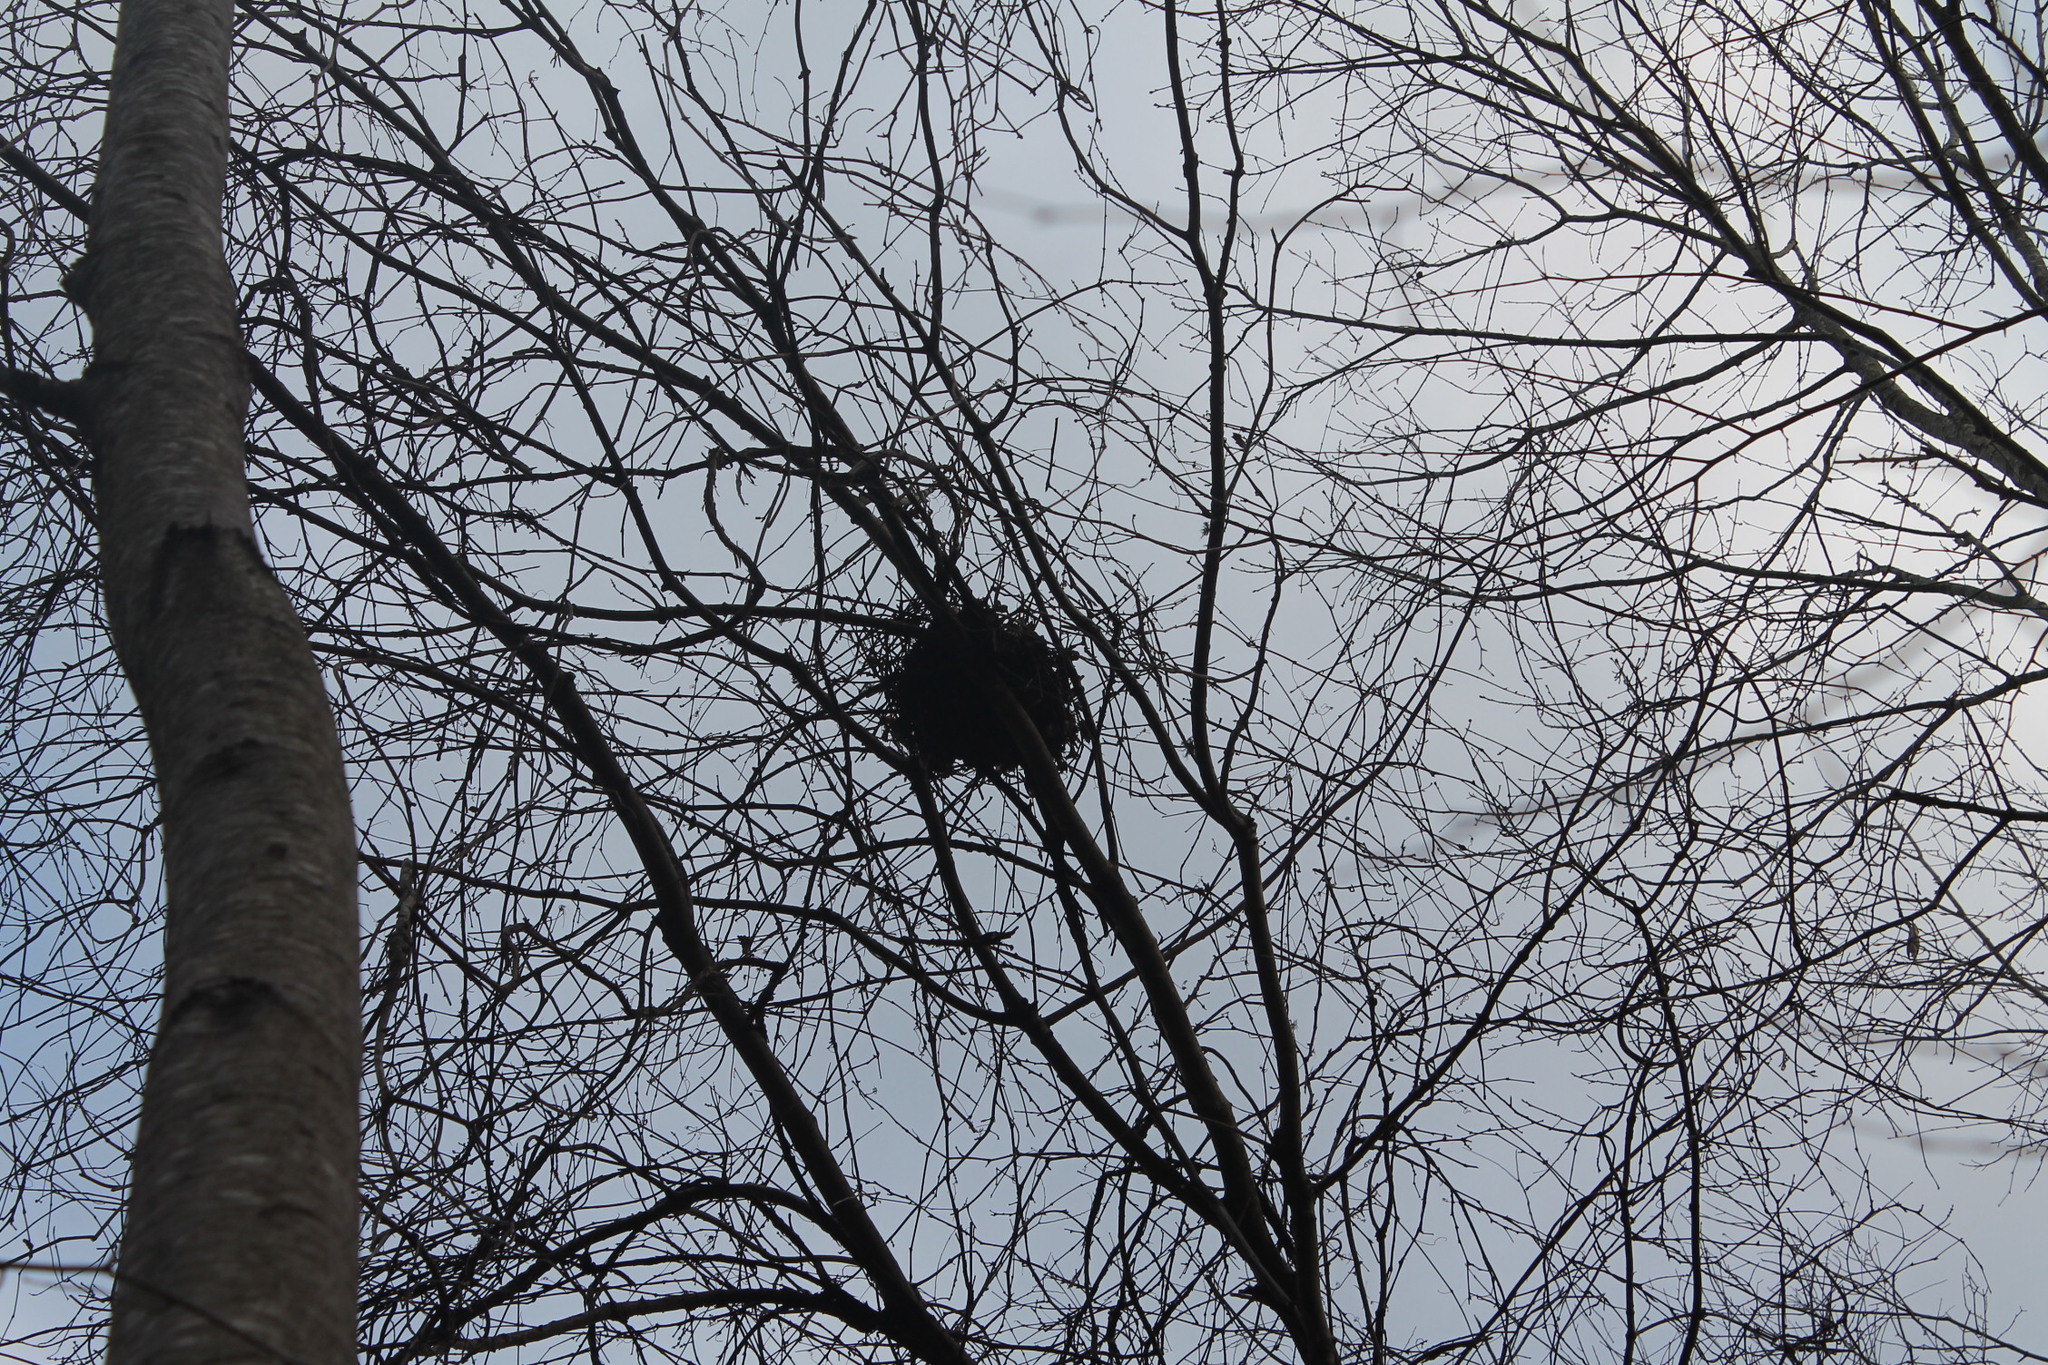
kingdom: Animalia
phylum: Chordata
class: Mammalia
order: Rodentia
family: Sciuridae
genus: Sciurus
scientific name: Sciurus carolinensis
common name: Eastern gray squirrel
